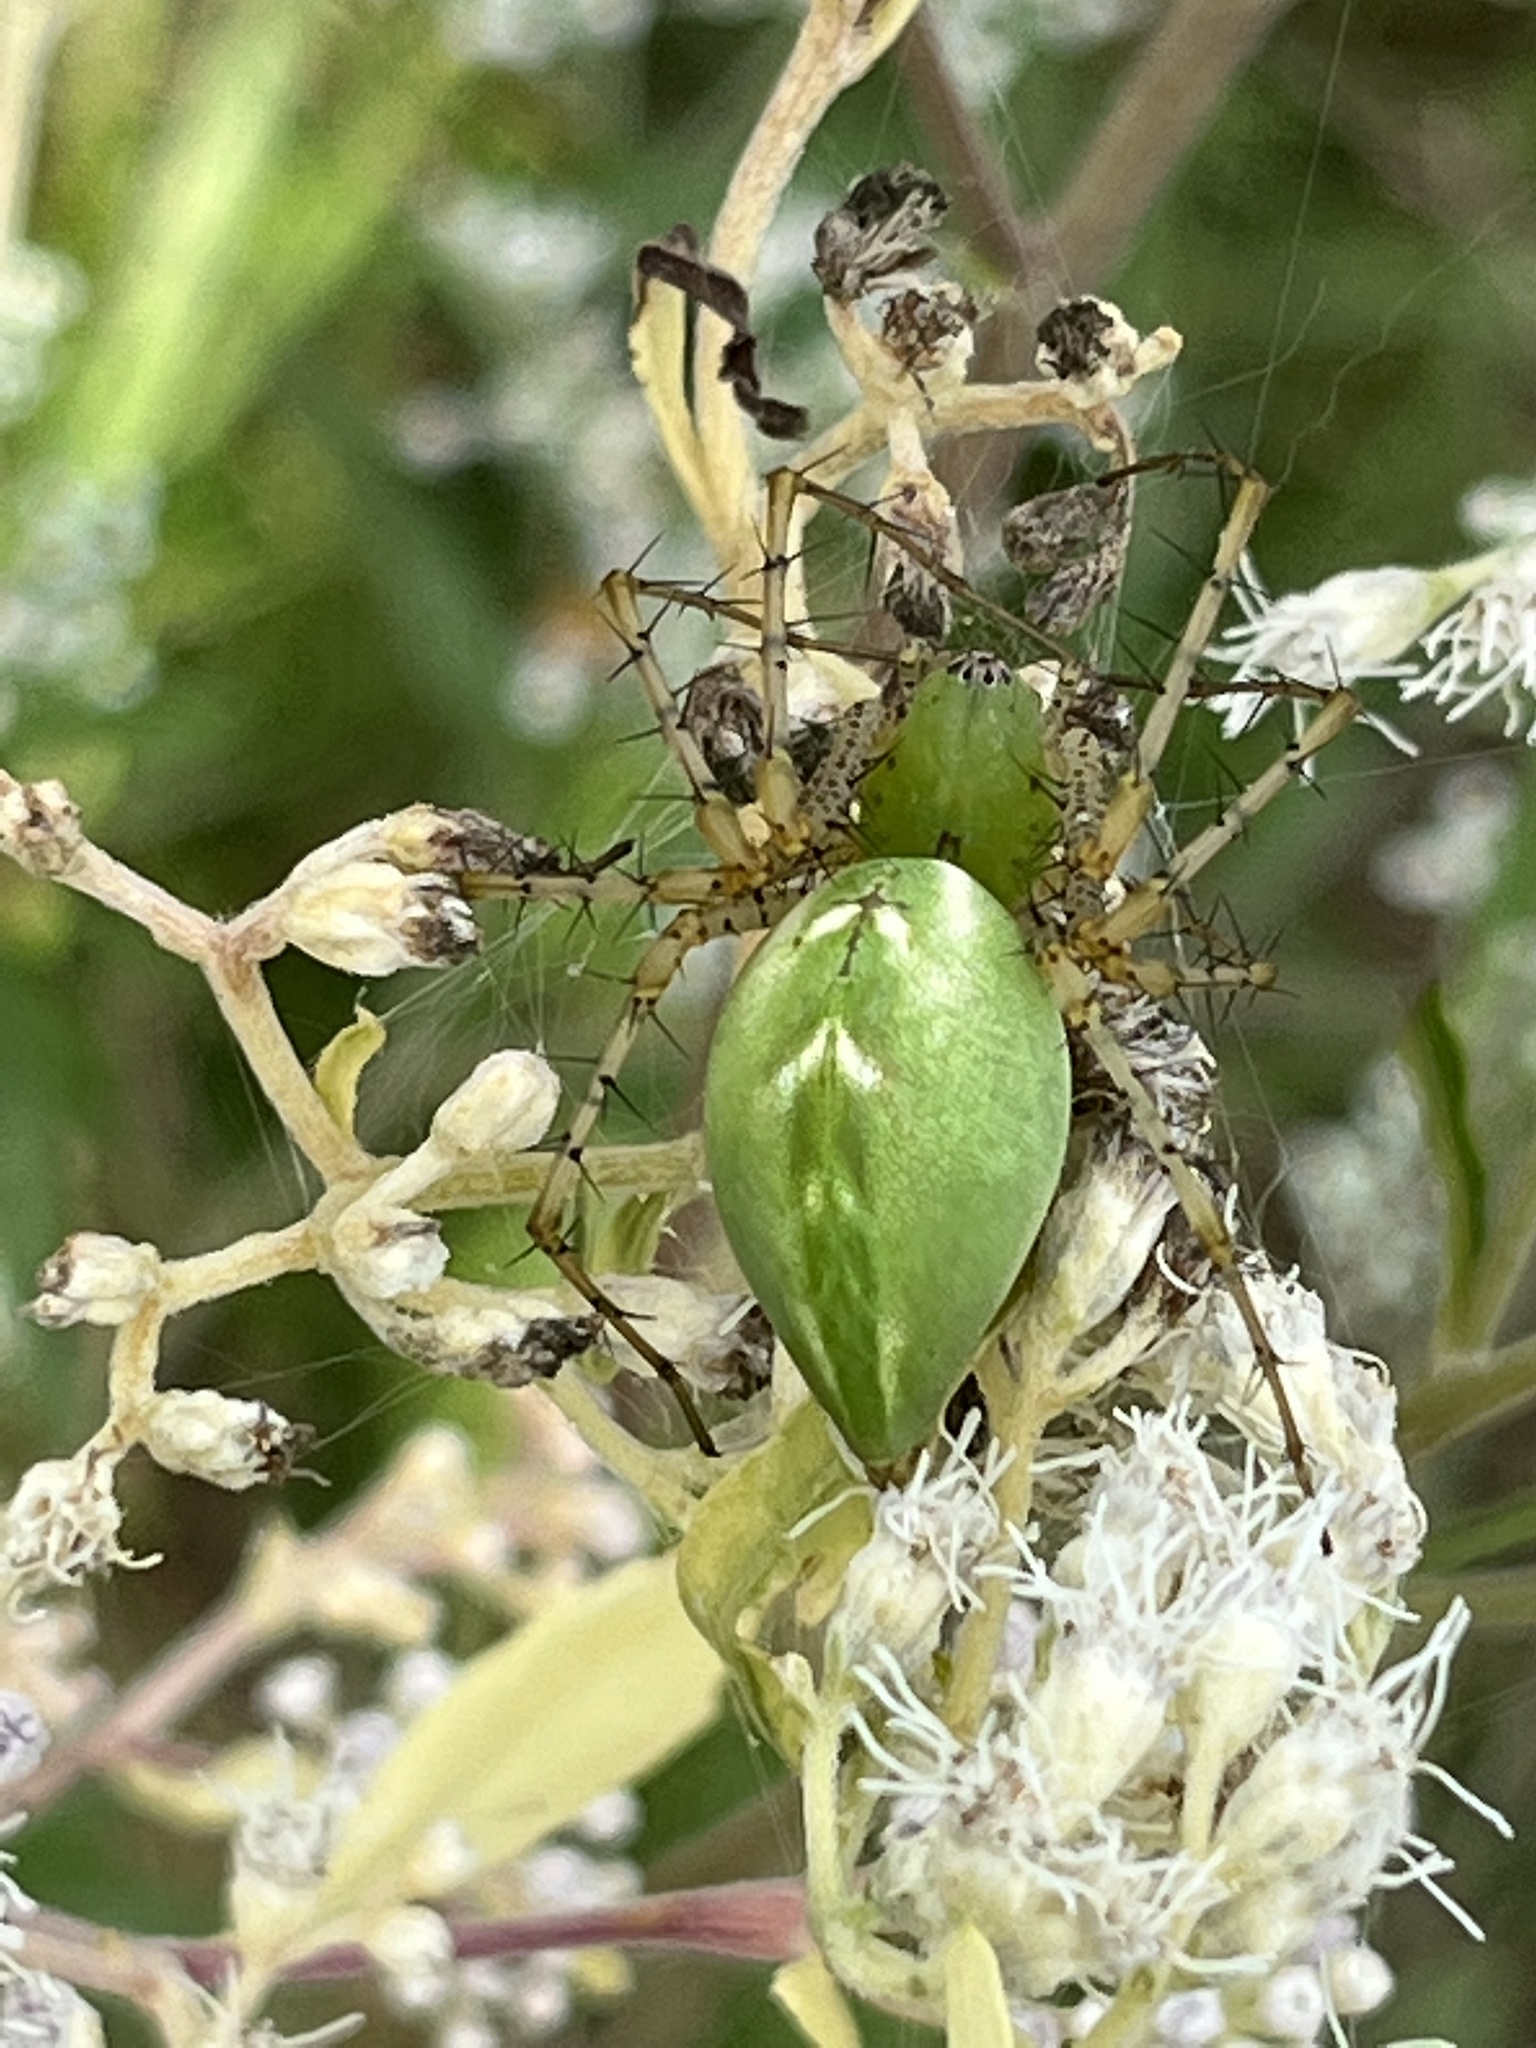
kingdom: Animalia
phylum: Arthropoda
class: Arachnida
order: Araneae
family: Oxyopidae
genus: Peucetia
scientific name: Peucetia viridans
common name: Lynx spiders
